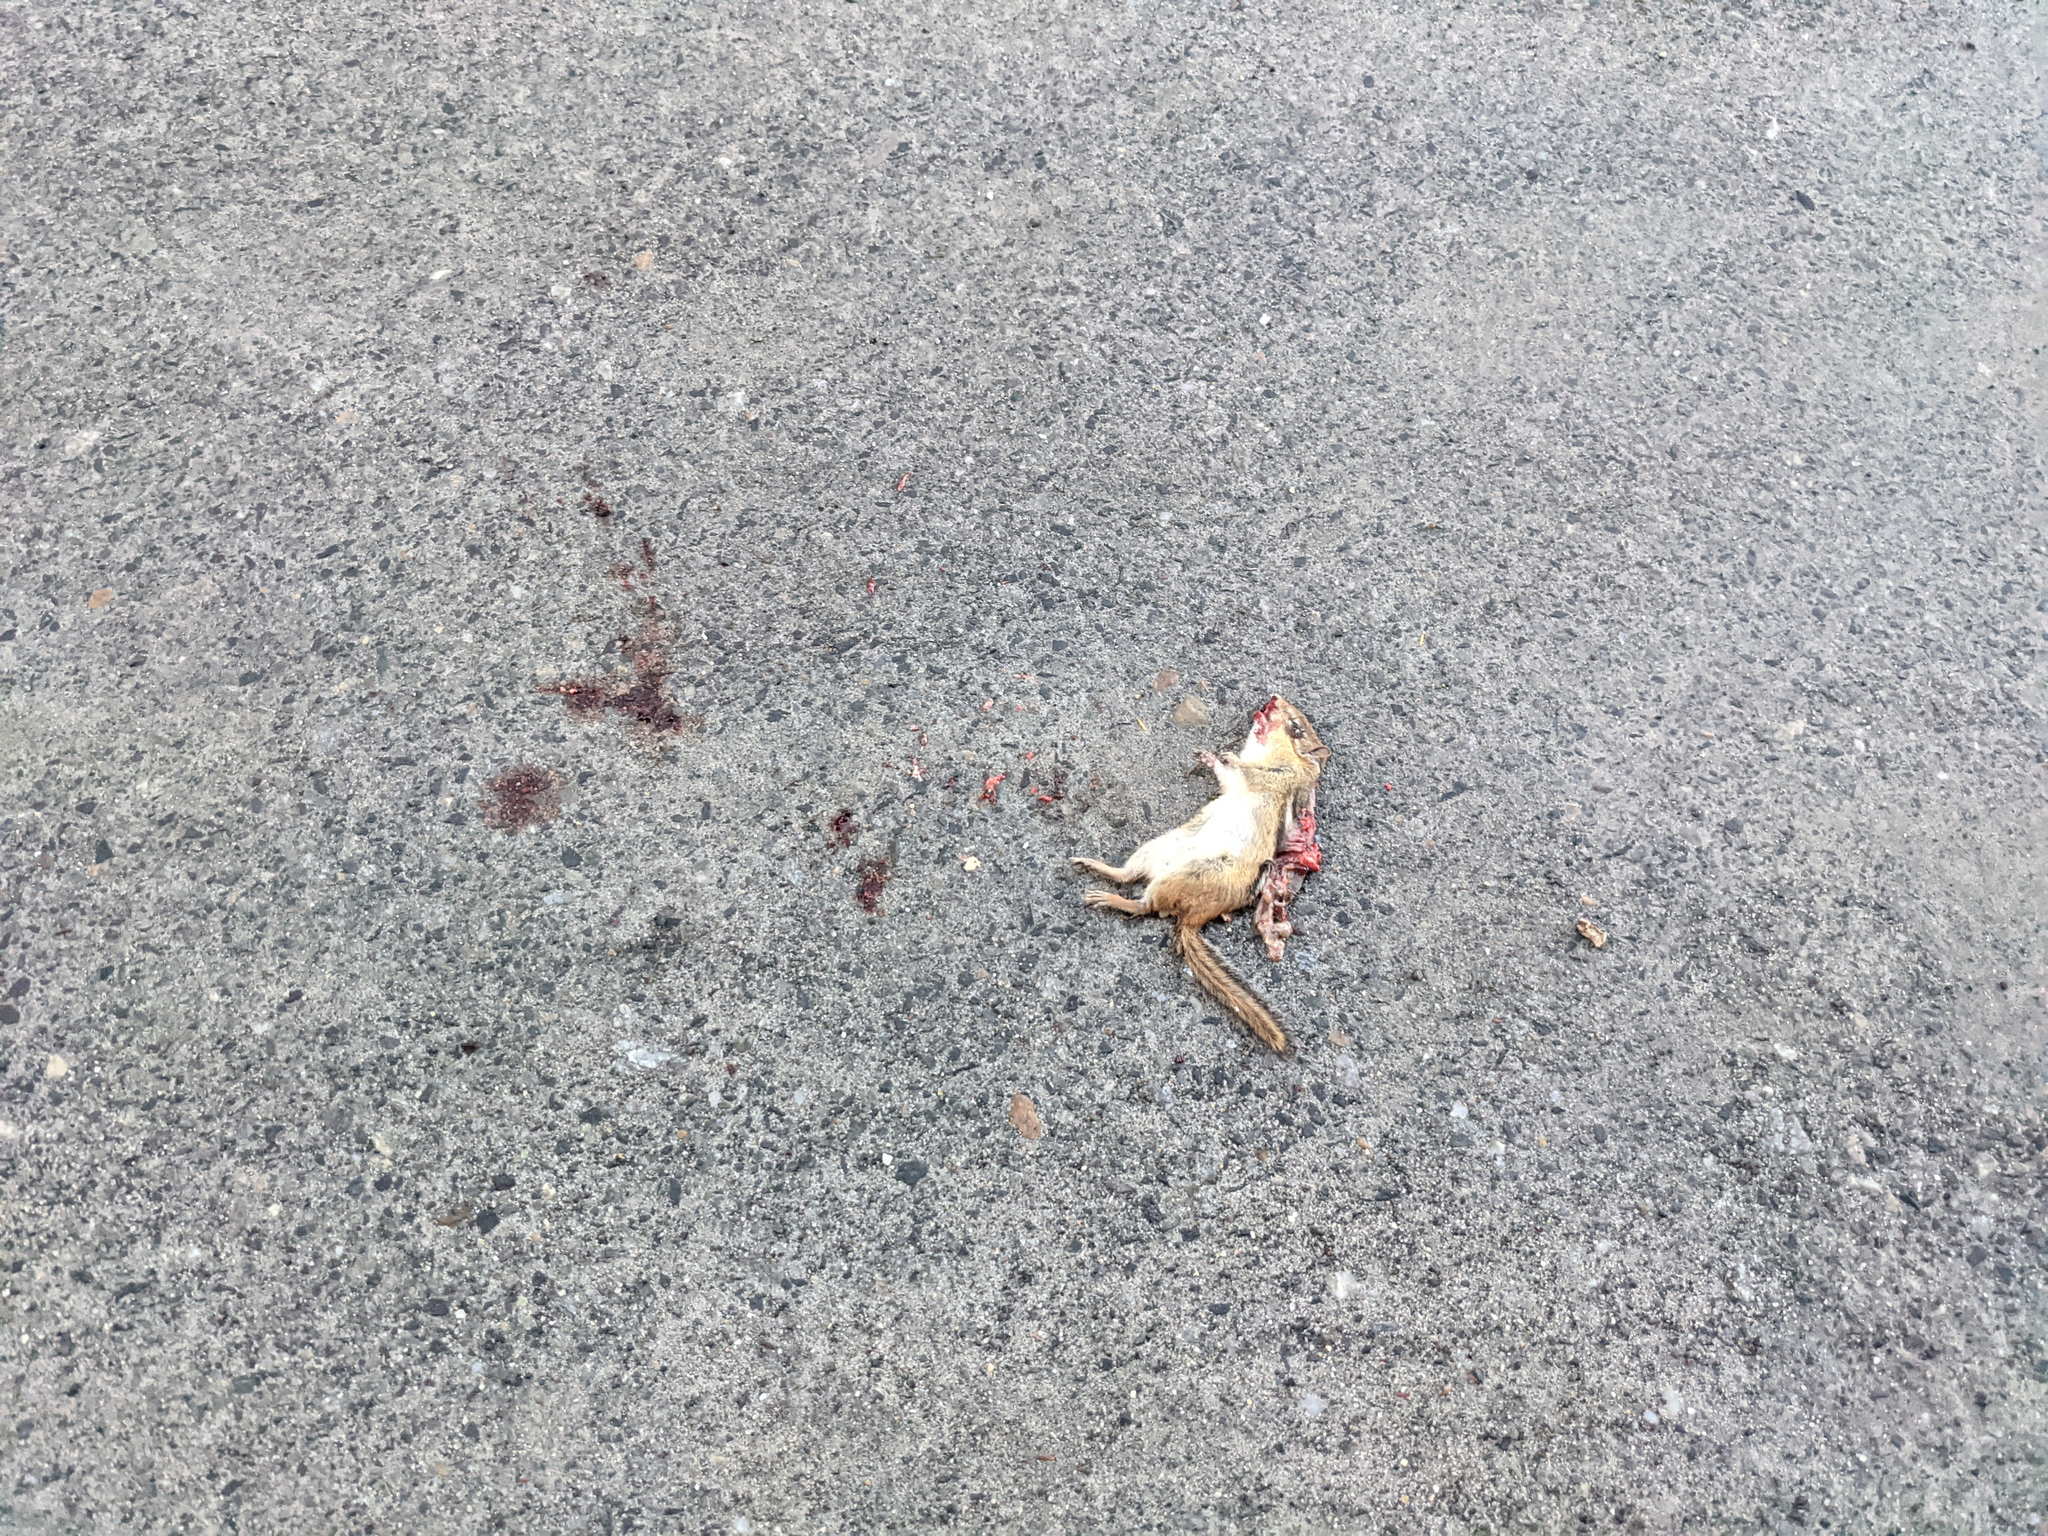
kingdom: Animalia
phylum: Chordata
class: Mammalia
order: Rodentia
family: Sciuridae
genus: Tamias
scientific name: Tamias striatus
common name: Eastern chipmunk
